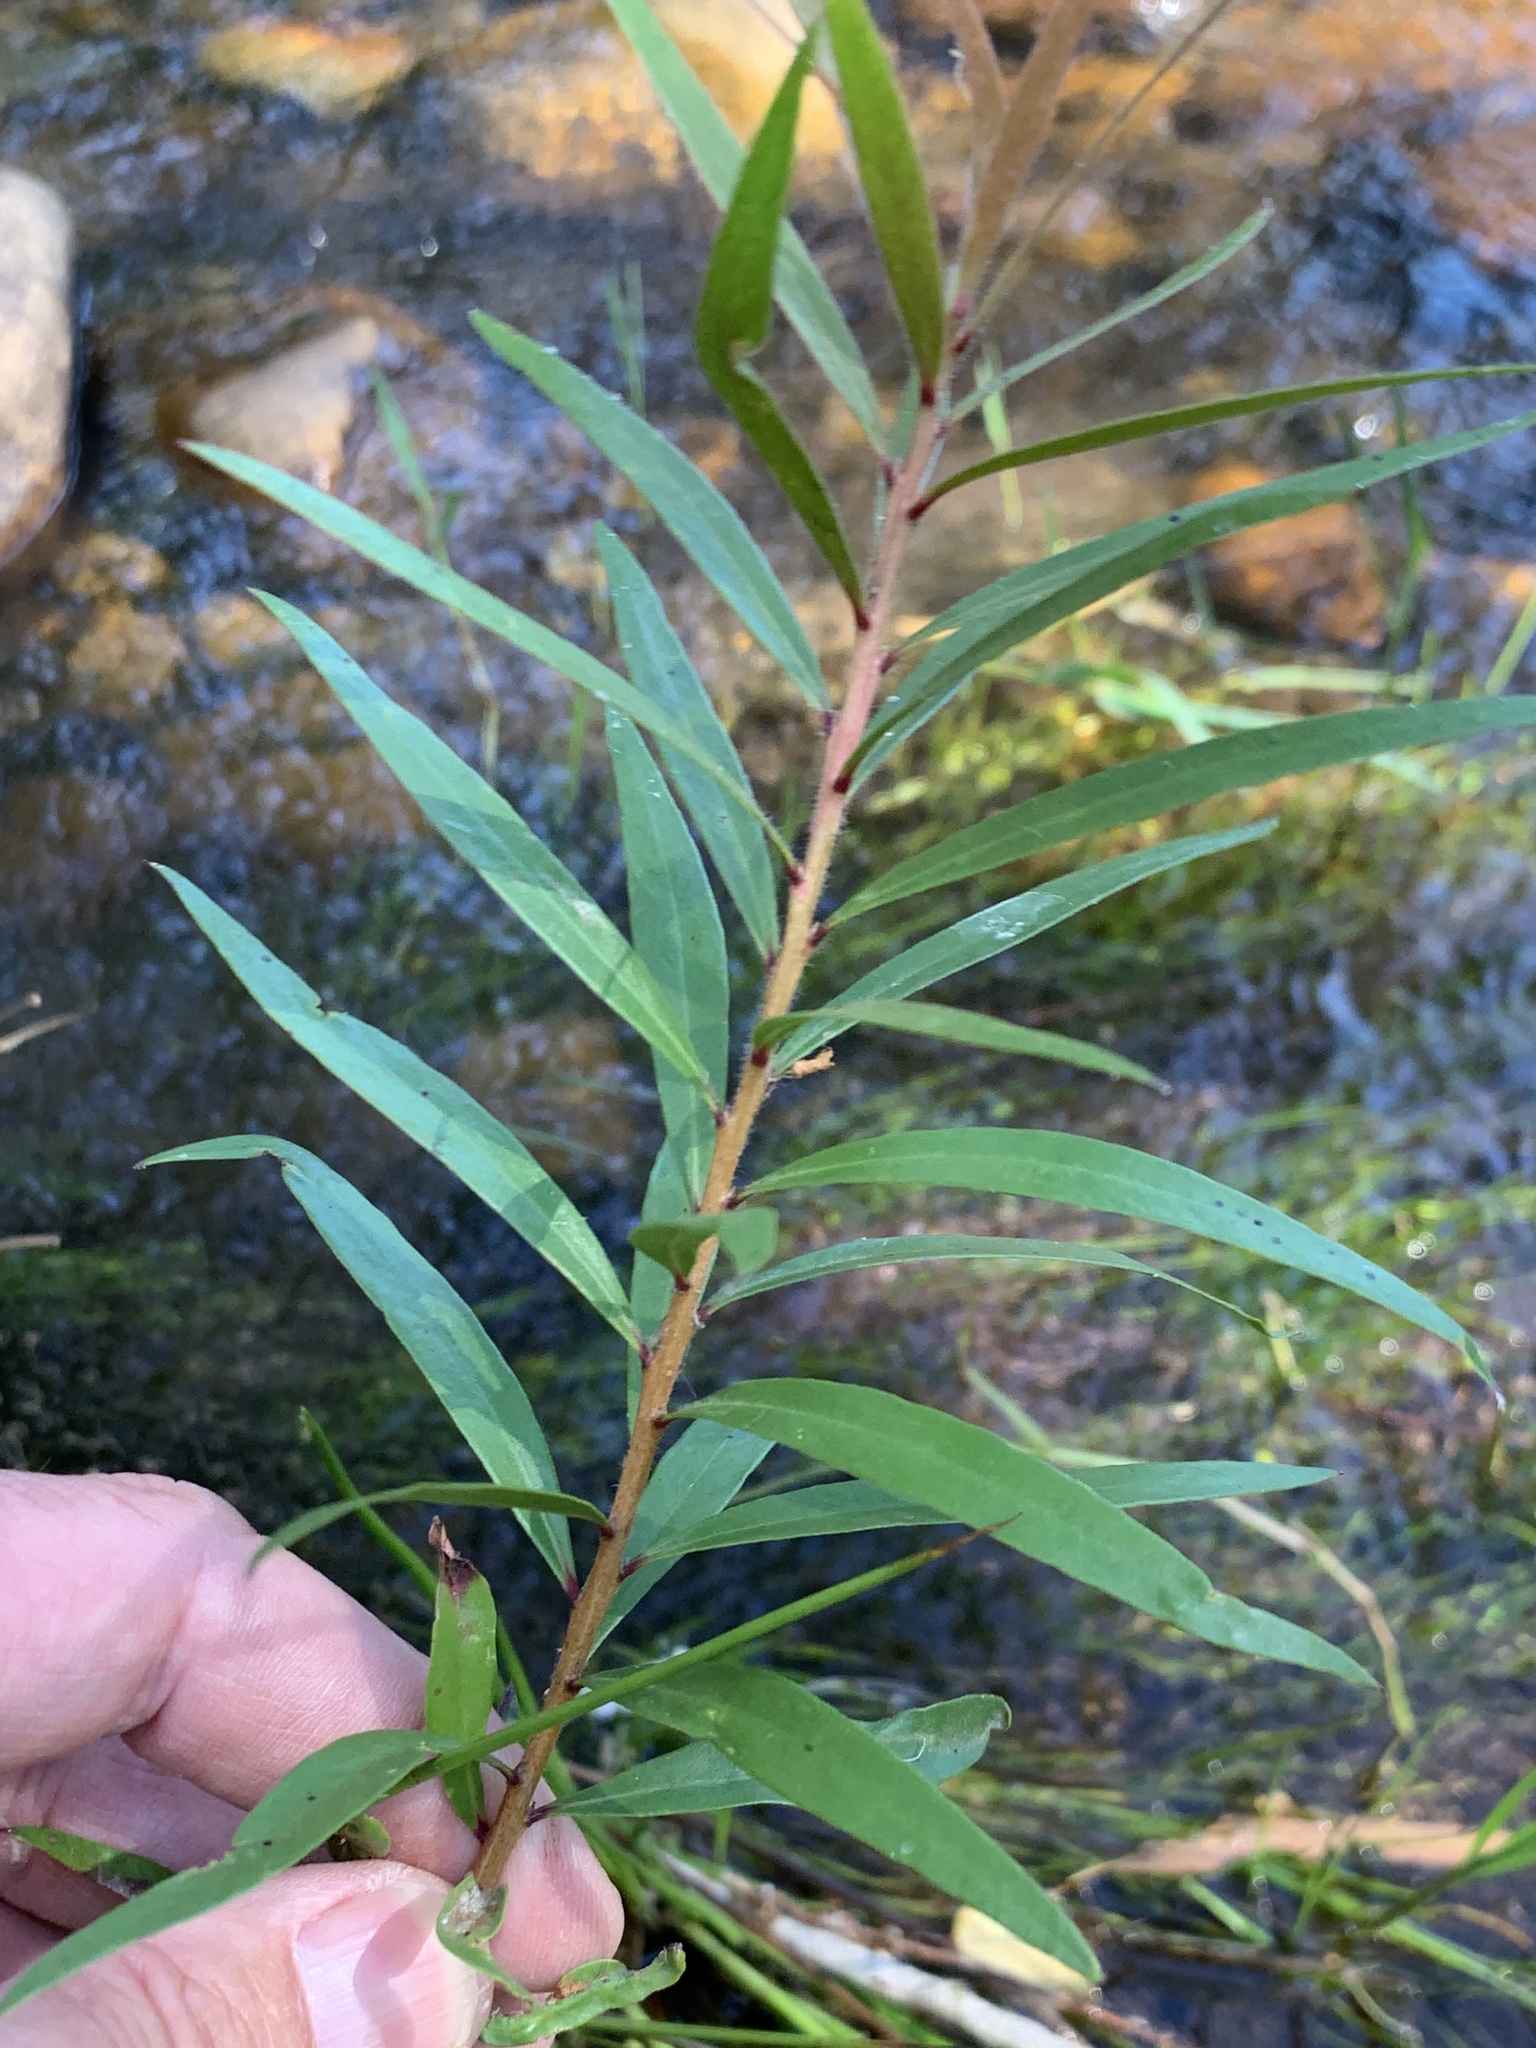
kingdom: Plantae
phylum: Tracheophyta
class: Magnoliopsida
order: Myrtales
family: Myrtaceae
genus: Callistemon
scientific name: Callistemon viminalis
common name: Drooping bottlebrush
